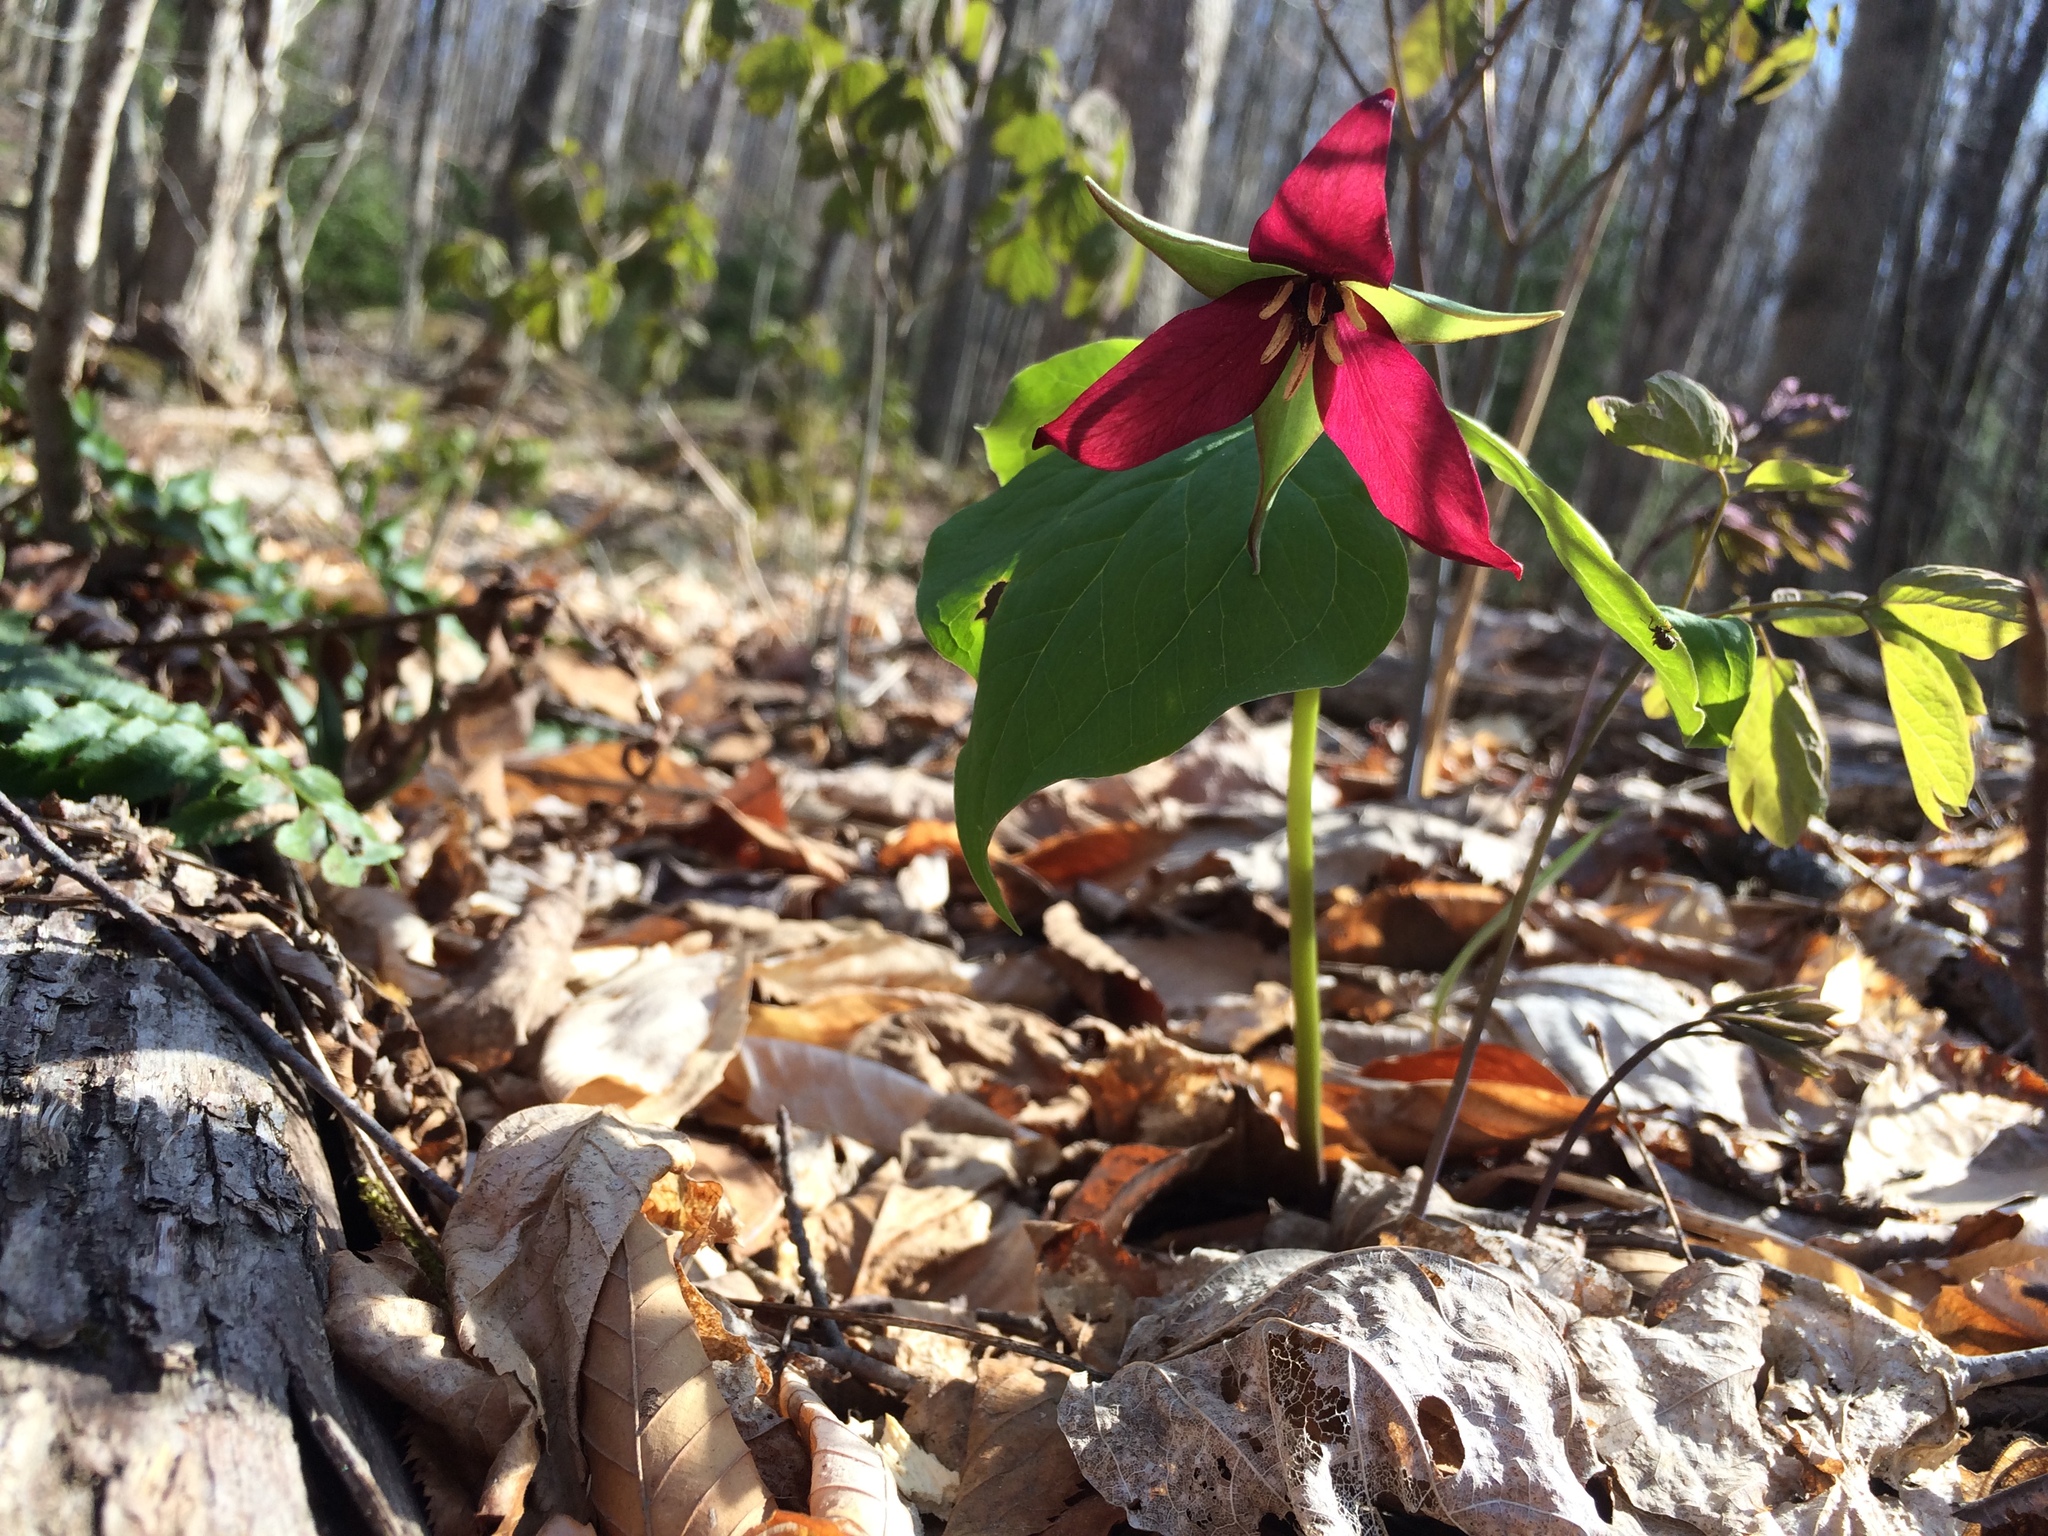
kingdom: Plantae
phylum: Tracheophyta
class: Liliopsida
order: Liliales
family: Melanthiaceae
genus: Trillium
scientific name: Trillium erectum
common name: Purple trillium
